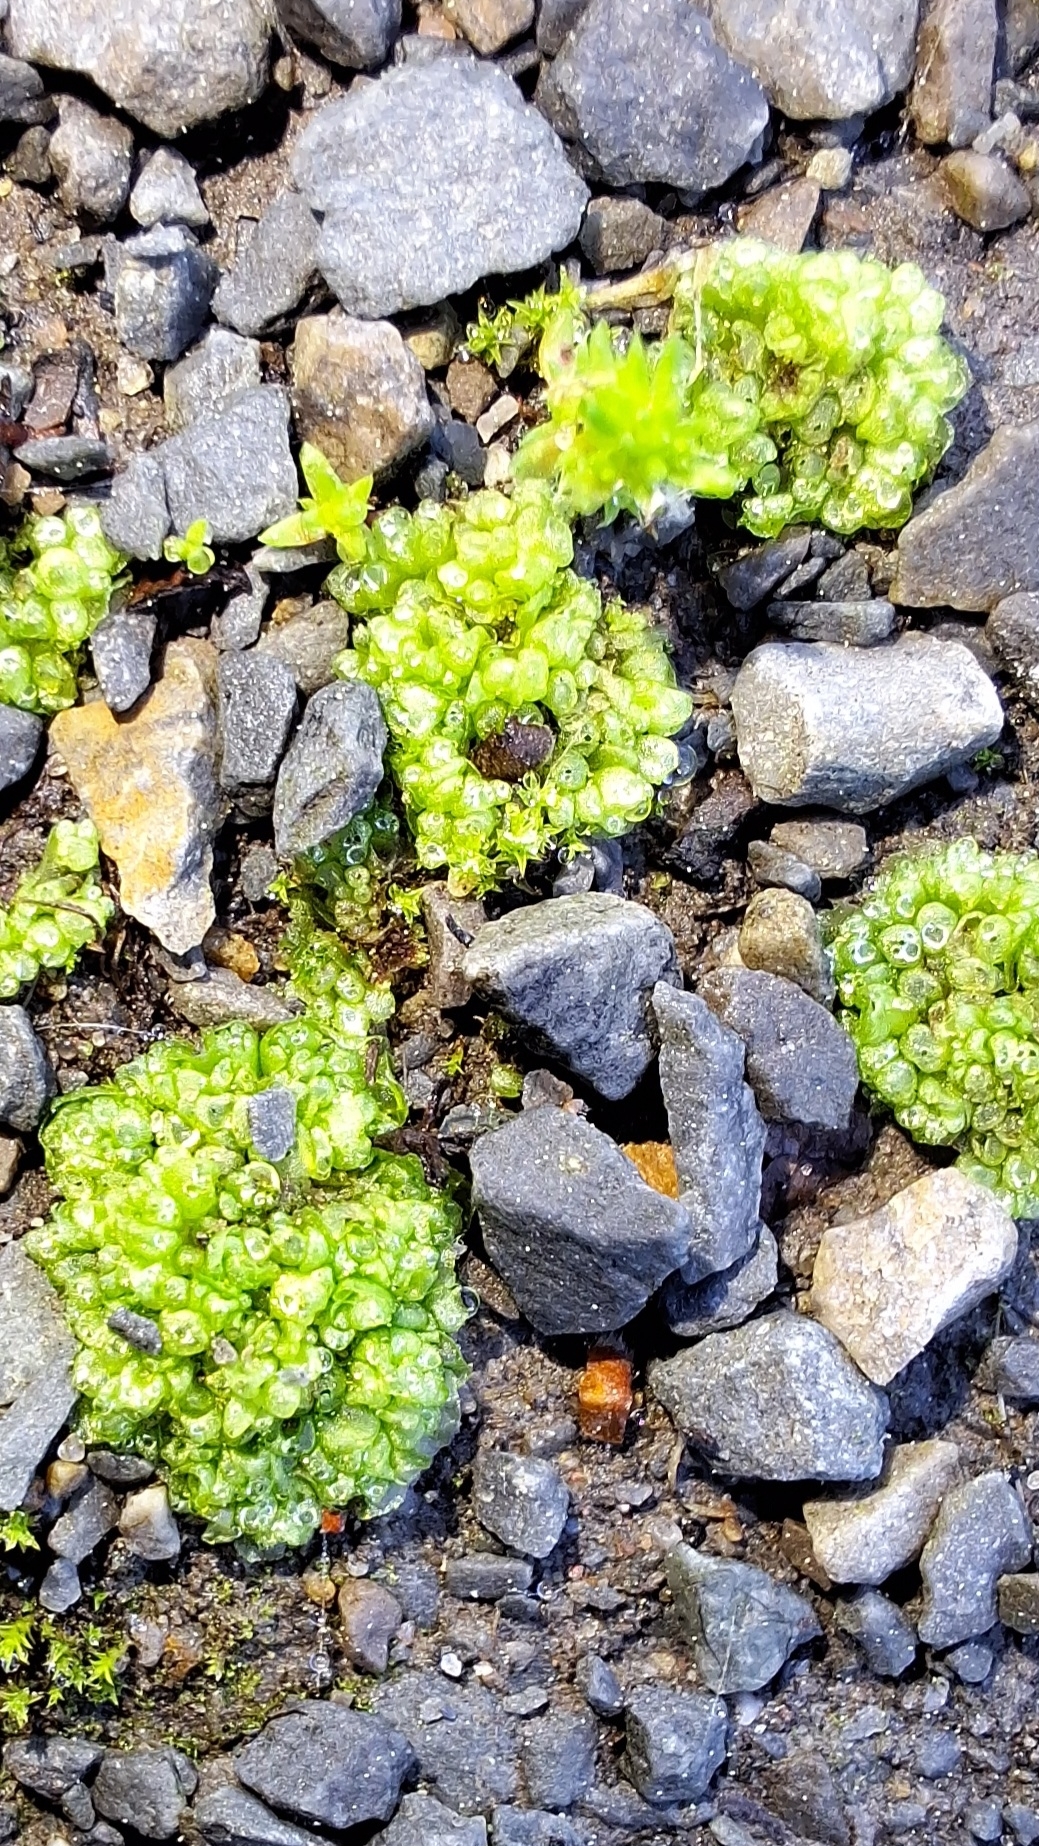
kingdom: Plantae
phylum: Marchantiophyta
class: Marchantiopsida
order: Sphaerocarpales
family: Sphaerocarpaceae
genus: Sphaerocarpos
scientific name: Sphaerocarpos texanus
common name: Texas balloonwort
